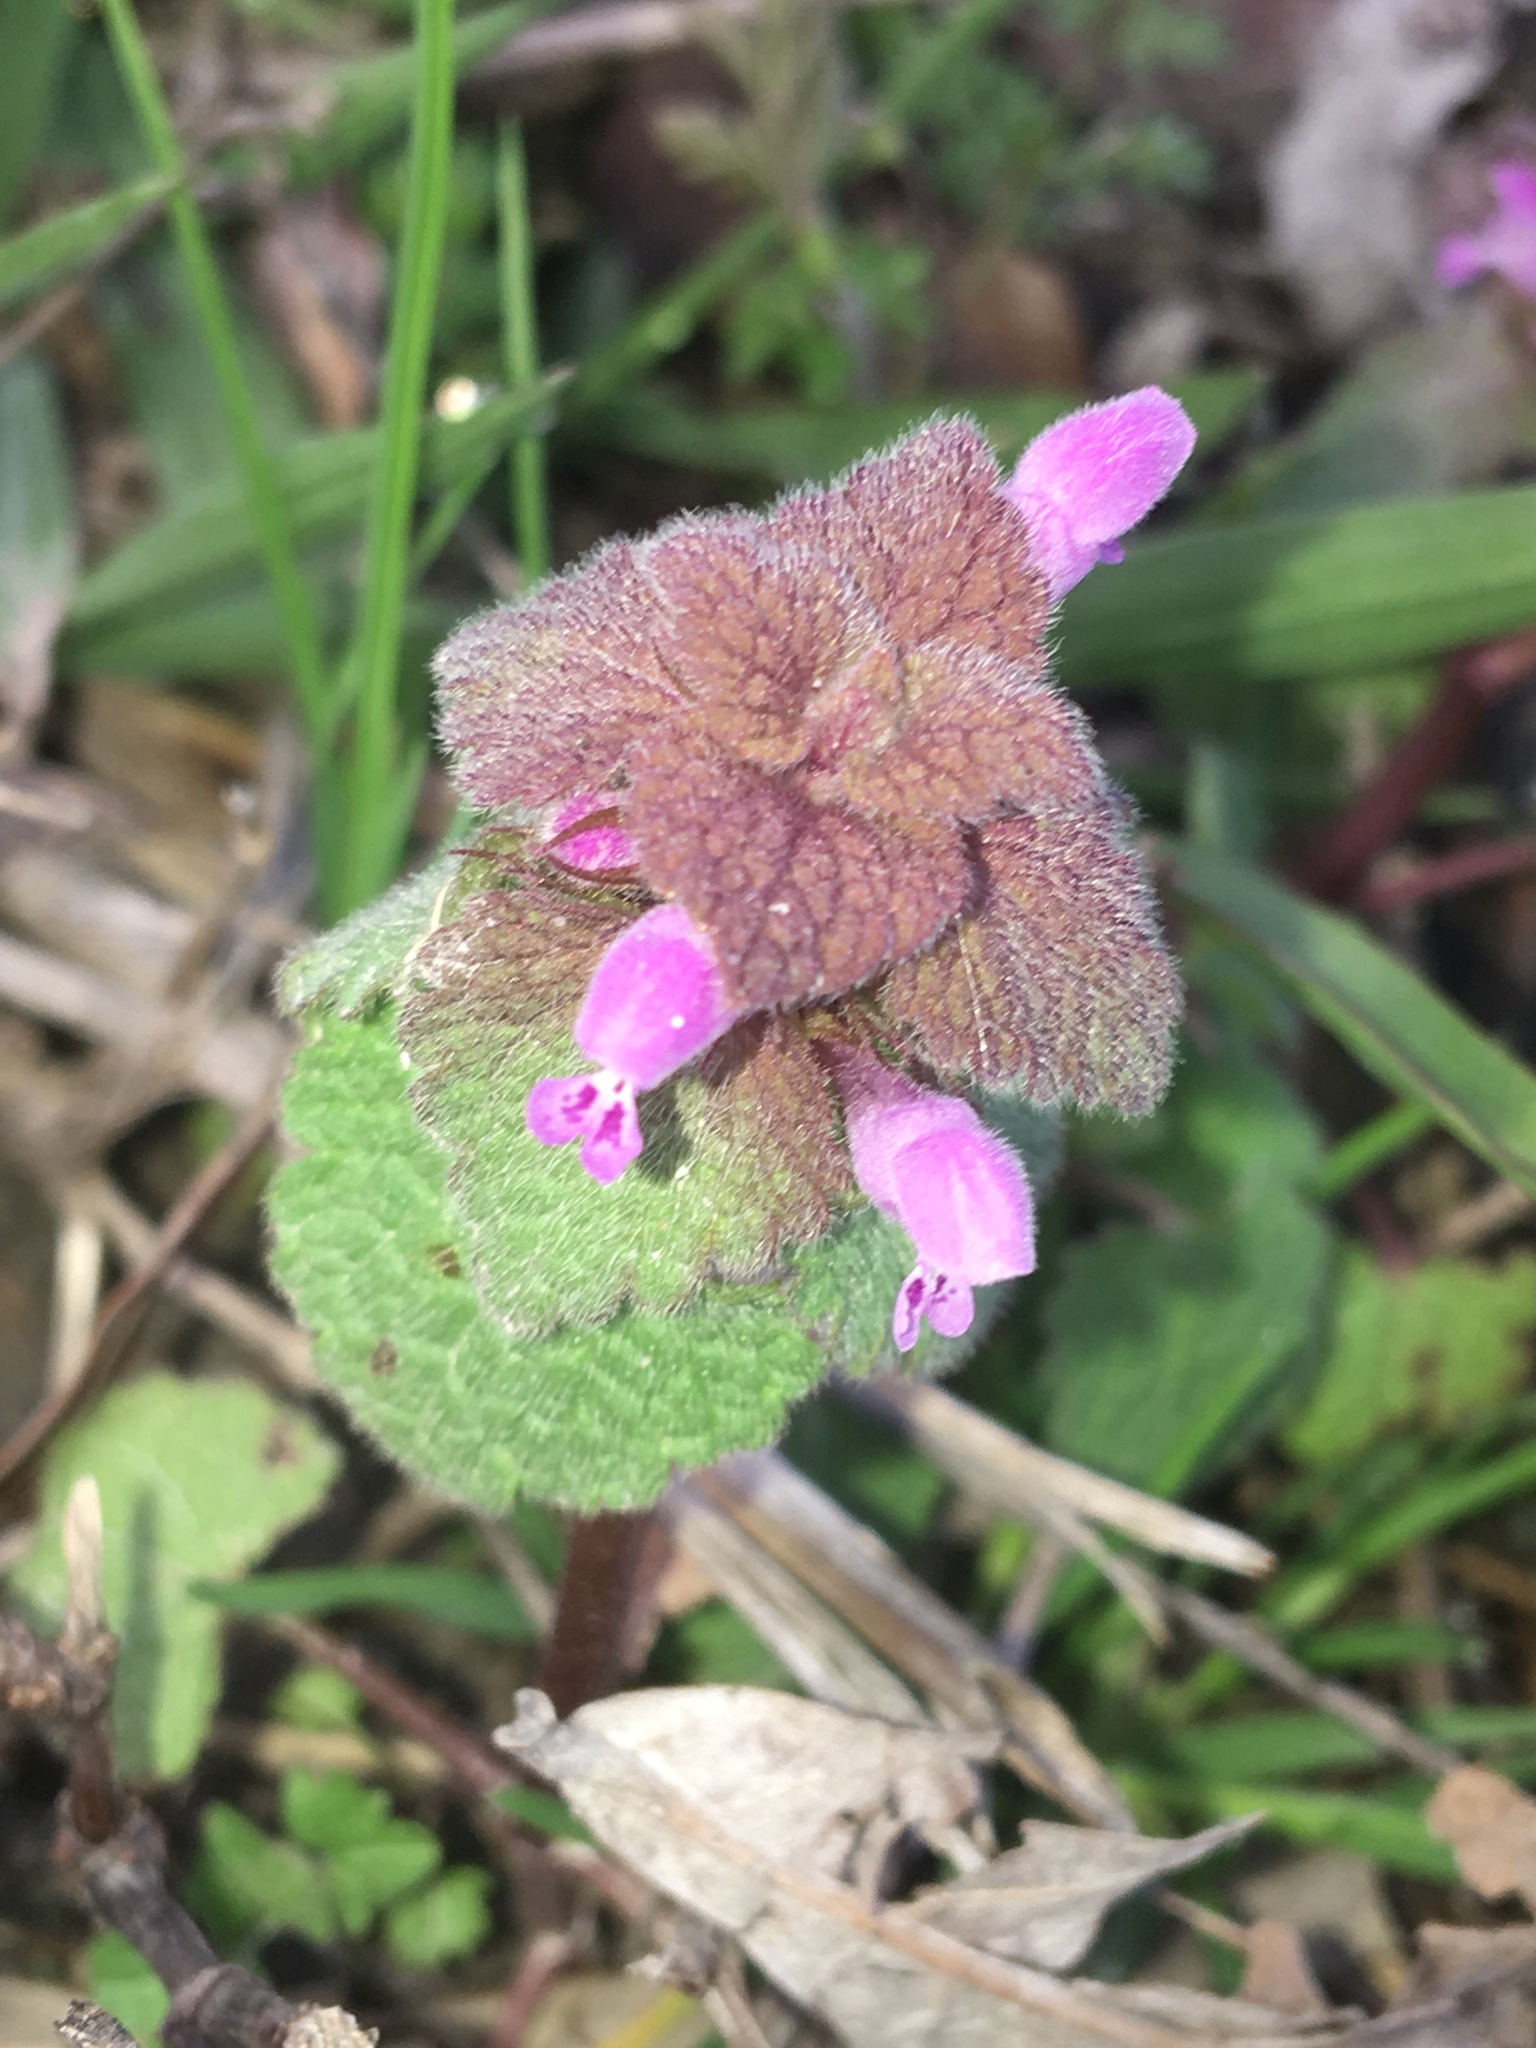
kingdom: Plantae
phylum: Tracheophyta
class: Magnoliopsida
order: Lamiales
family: Lamiaceae
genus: Lamium
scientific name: Lamium purpureum
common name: Red dead-nettle
